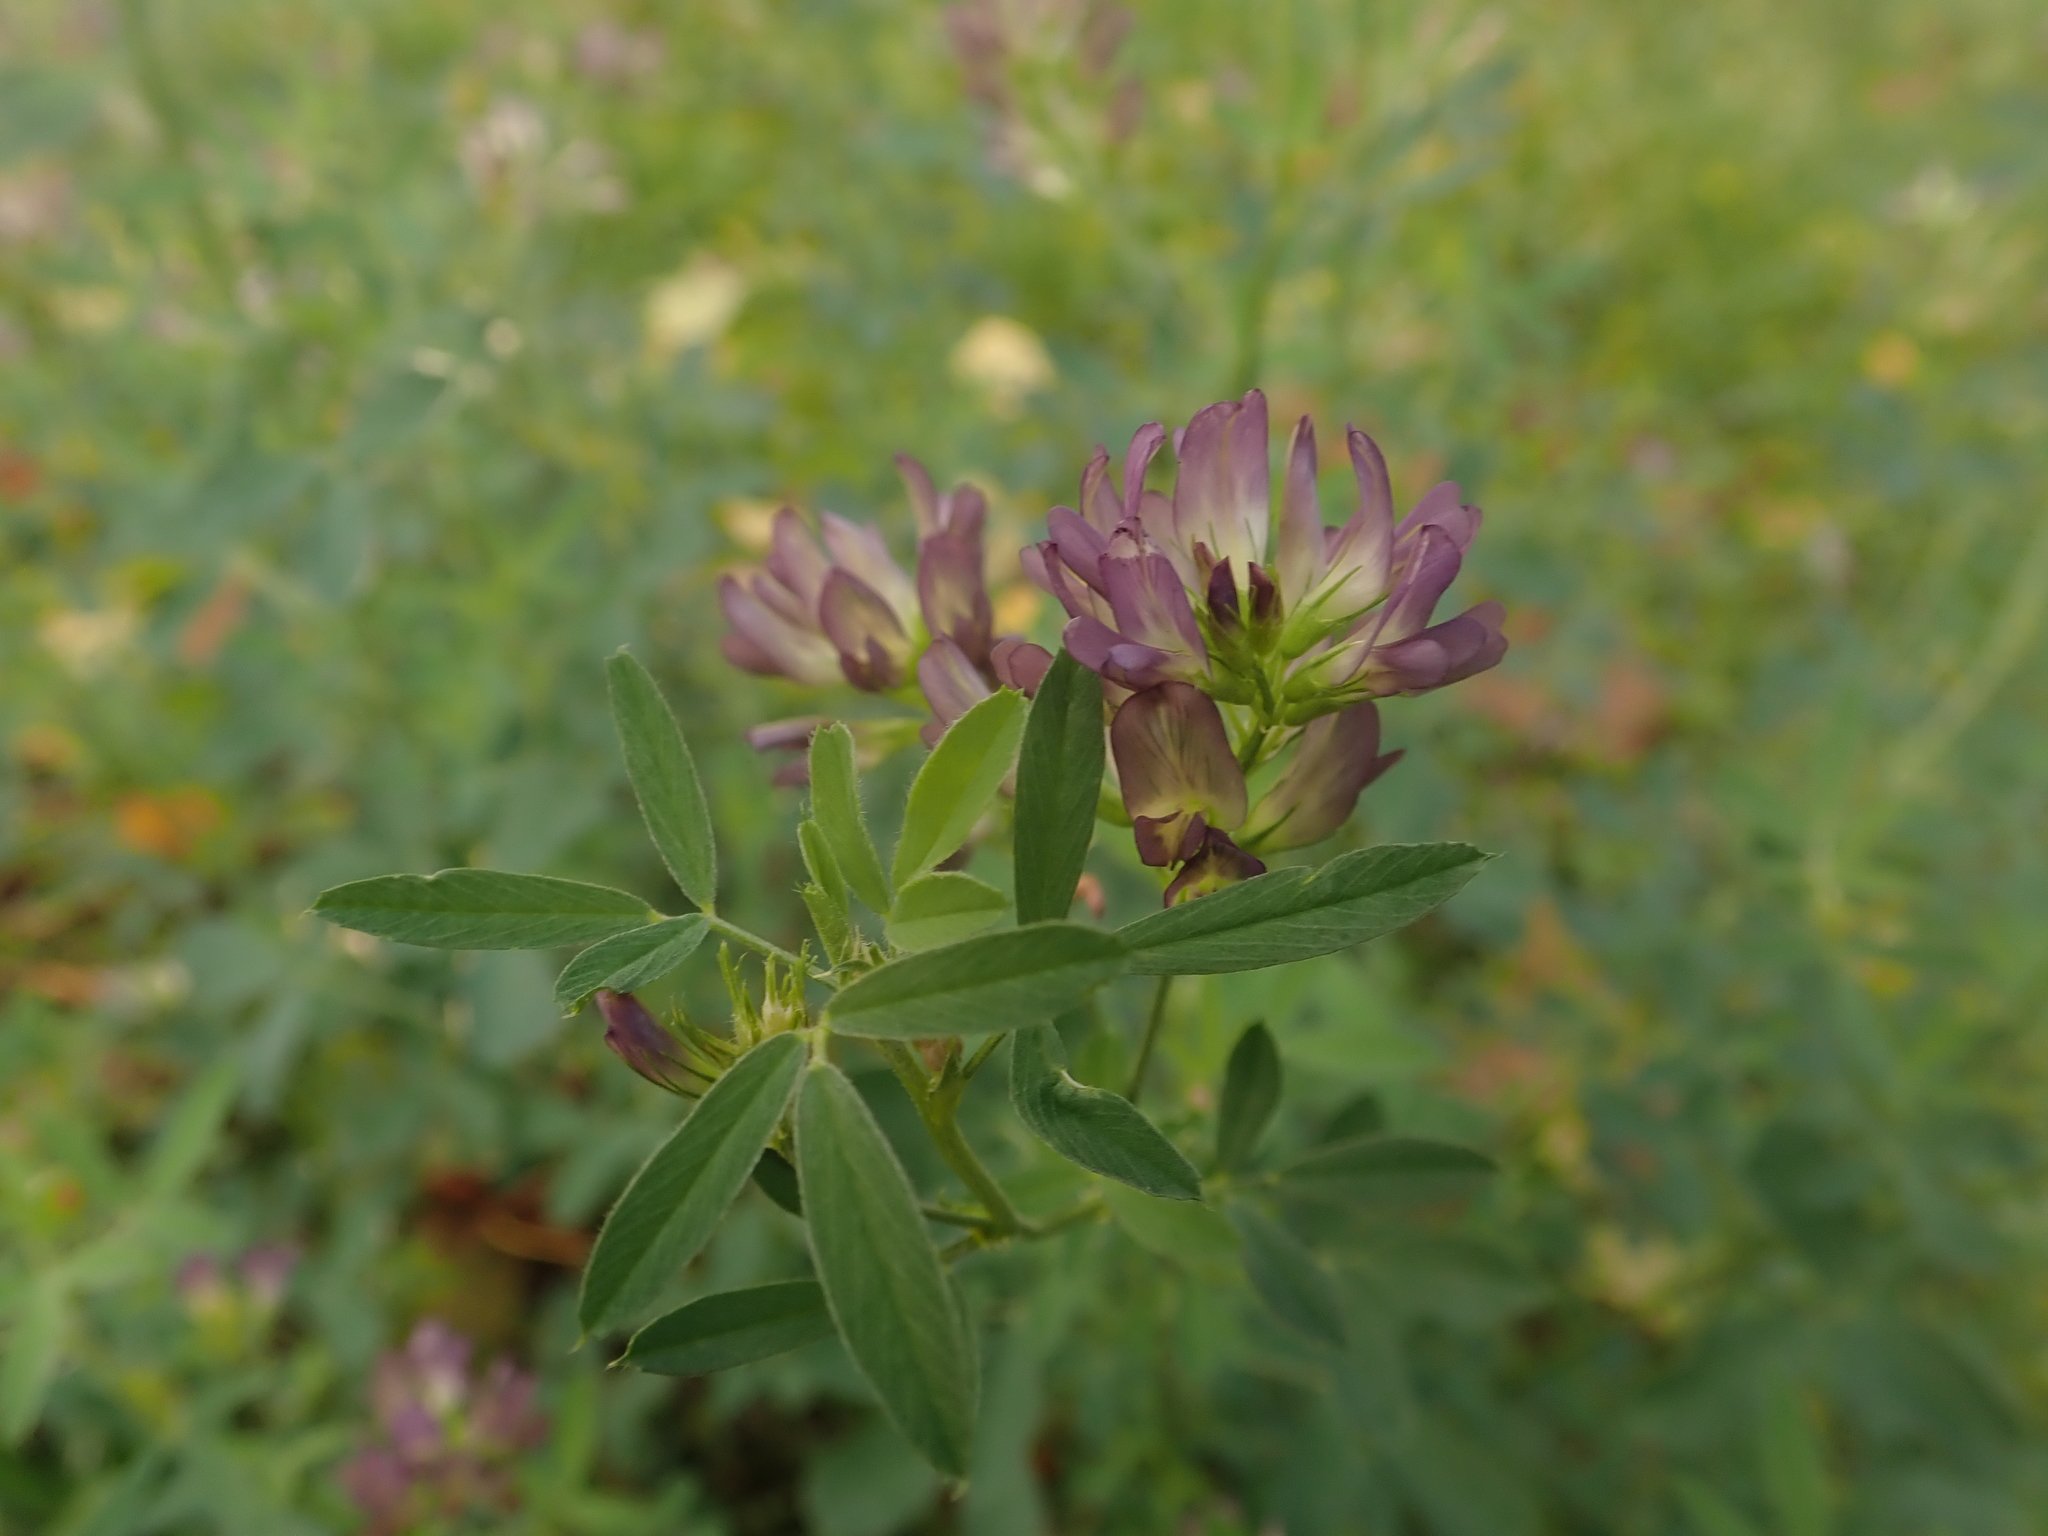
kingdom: Plantae
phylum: Tracheophyta
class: Magnoliopsida
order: Fabales
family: Fabaceae
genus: Medicago
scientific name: Medicago varia
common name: Sand lucerne
